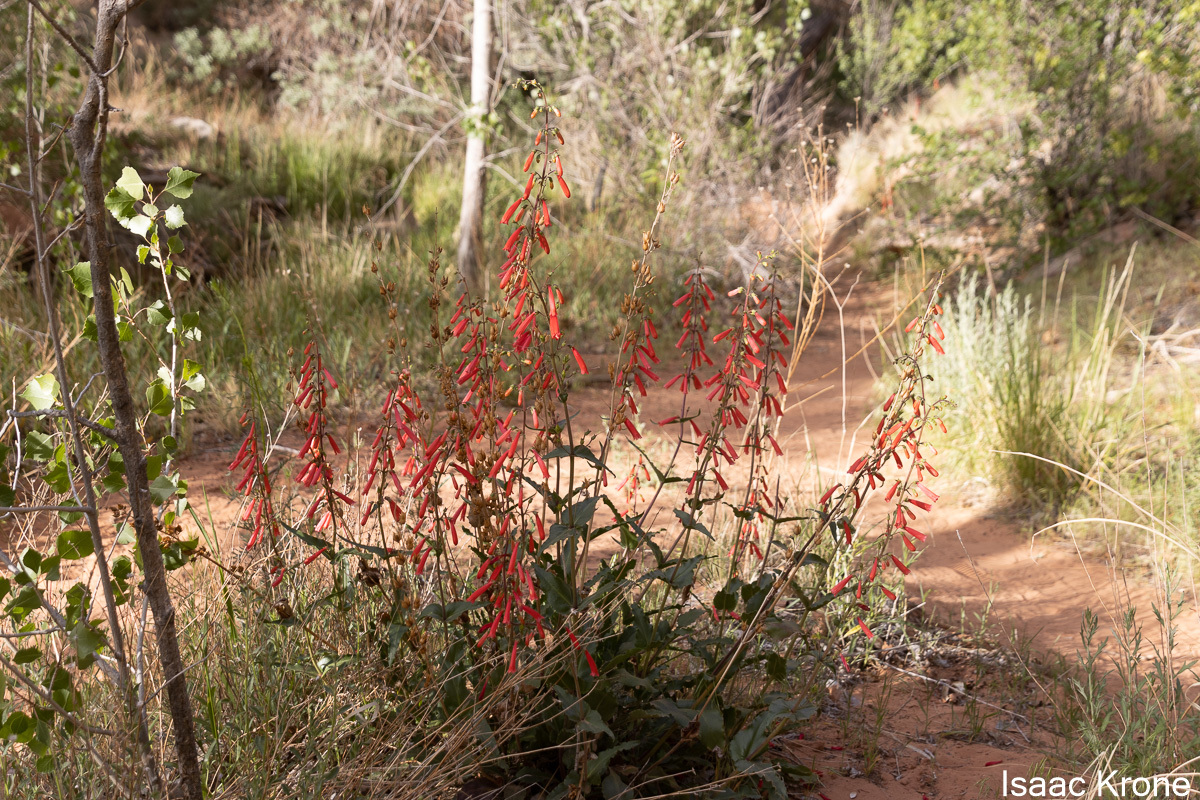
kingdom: Plantae
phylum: Tracheophyta
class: Magnoliopsida
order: Lamiales
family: Plantaginaceae
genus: Penstemon
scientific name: Penstemon eatonii
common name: Eaton's penstemon
